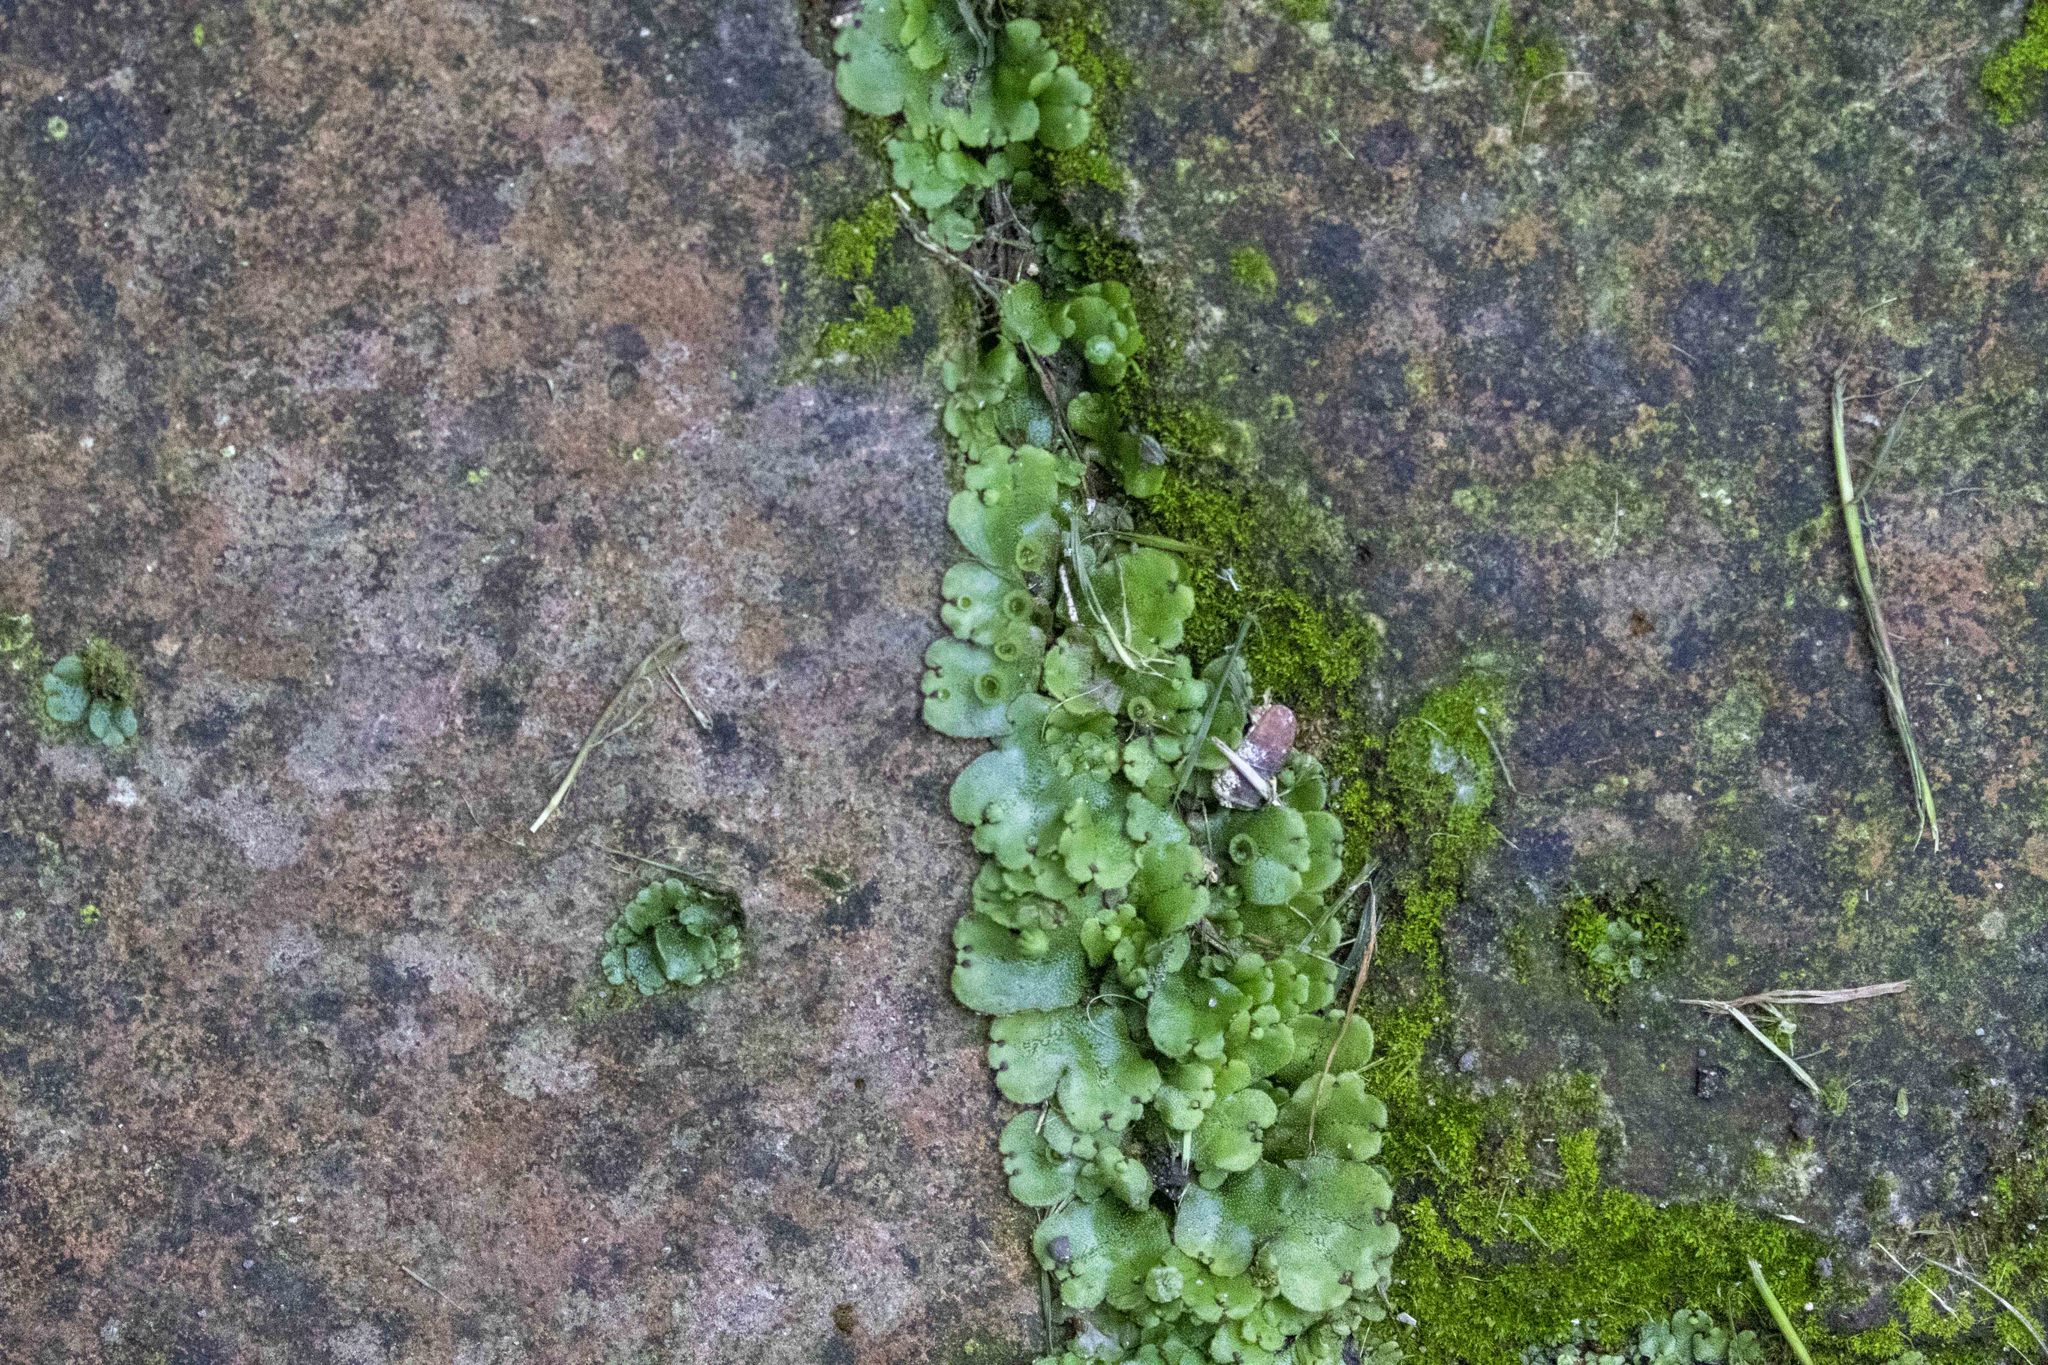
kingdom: Plantae
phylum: Marchantiophyta
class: Marchantiopsida
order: Marchantiales
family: Marchantiaceae
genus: Marchantia
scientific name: Marchantia polymorpha
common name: Common liverwort
